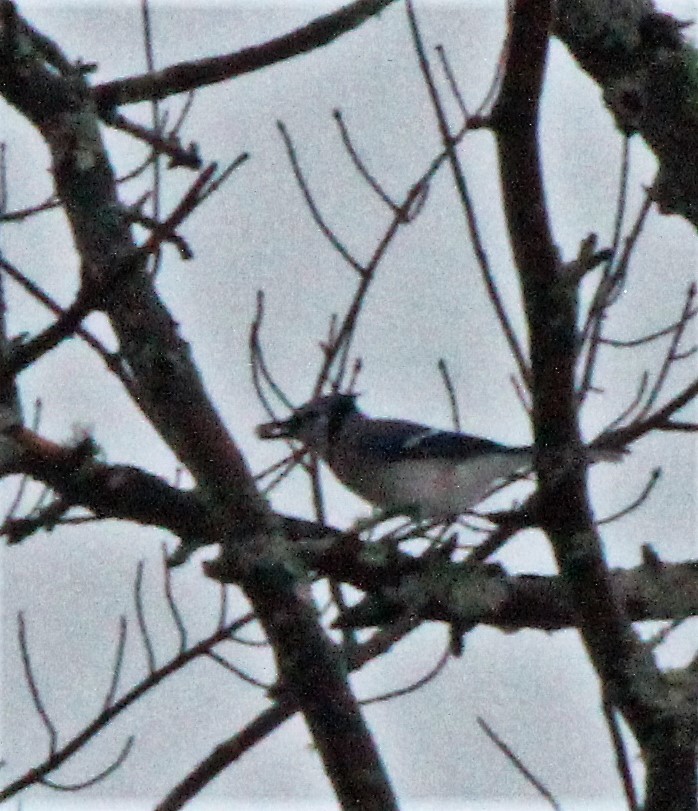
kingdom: Animalia
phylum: Chordata
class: Aves
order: Passeriformes
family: Corvidae
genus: Cyanocitta
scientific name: Cyanocitta cristata
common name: Blue jay
